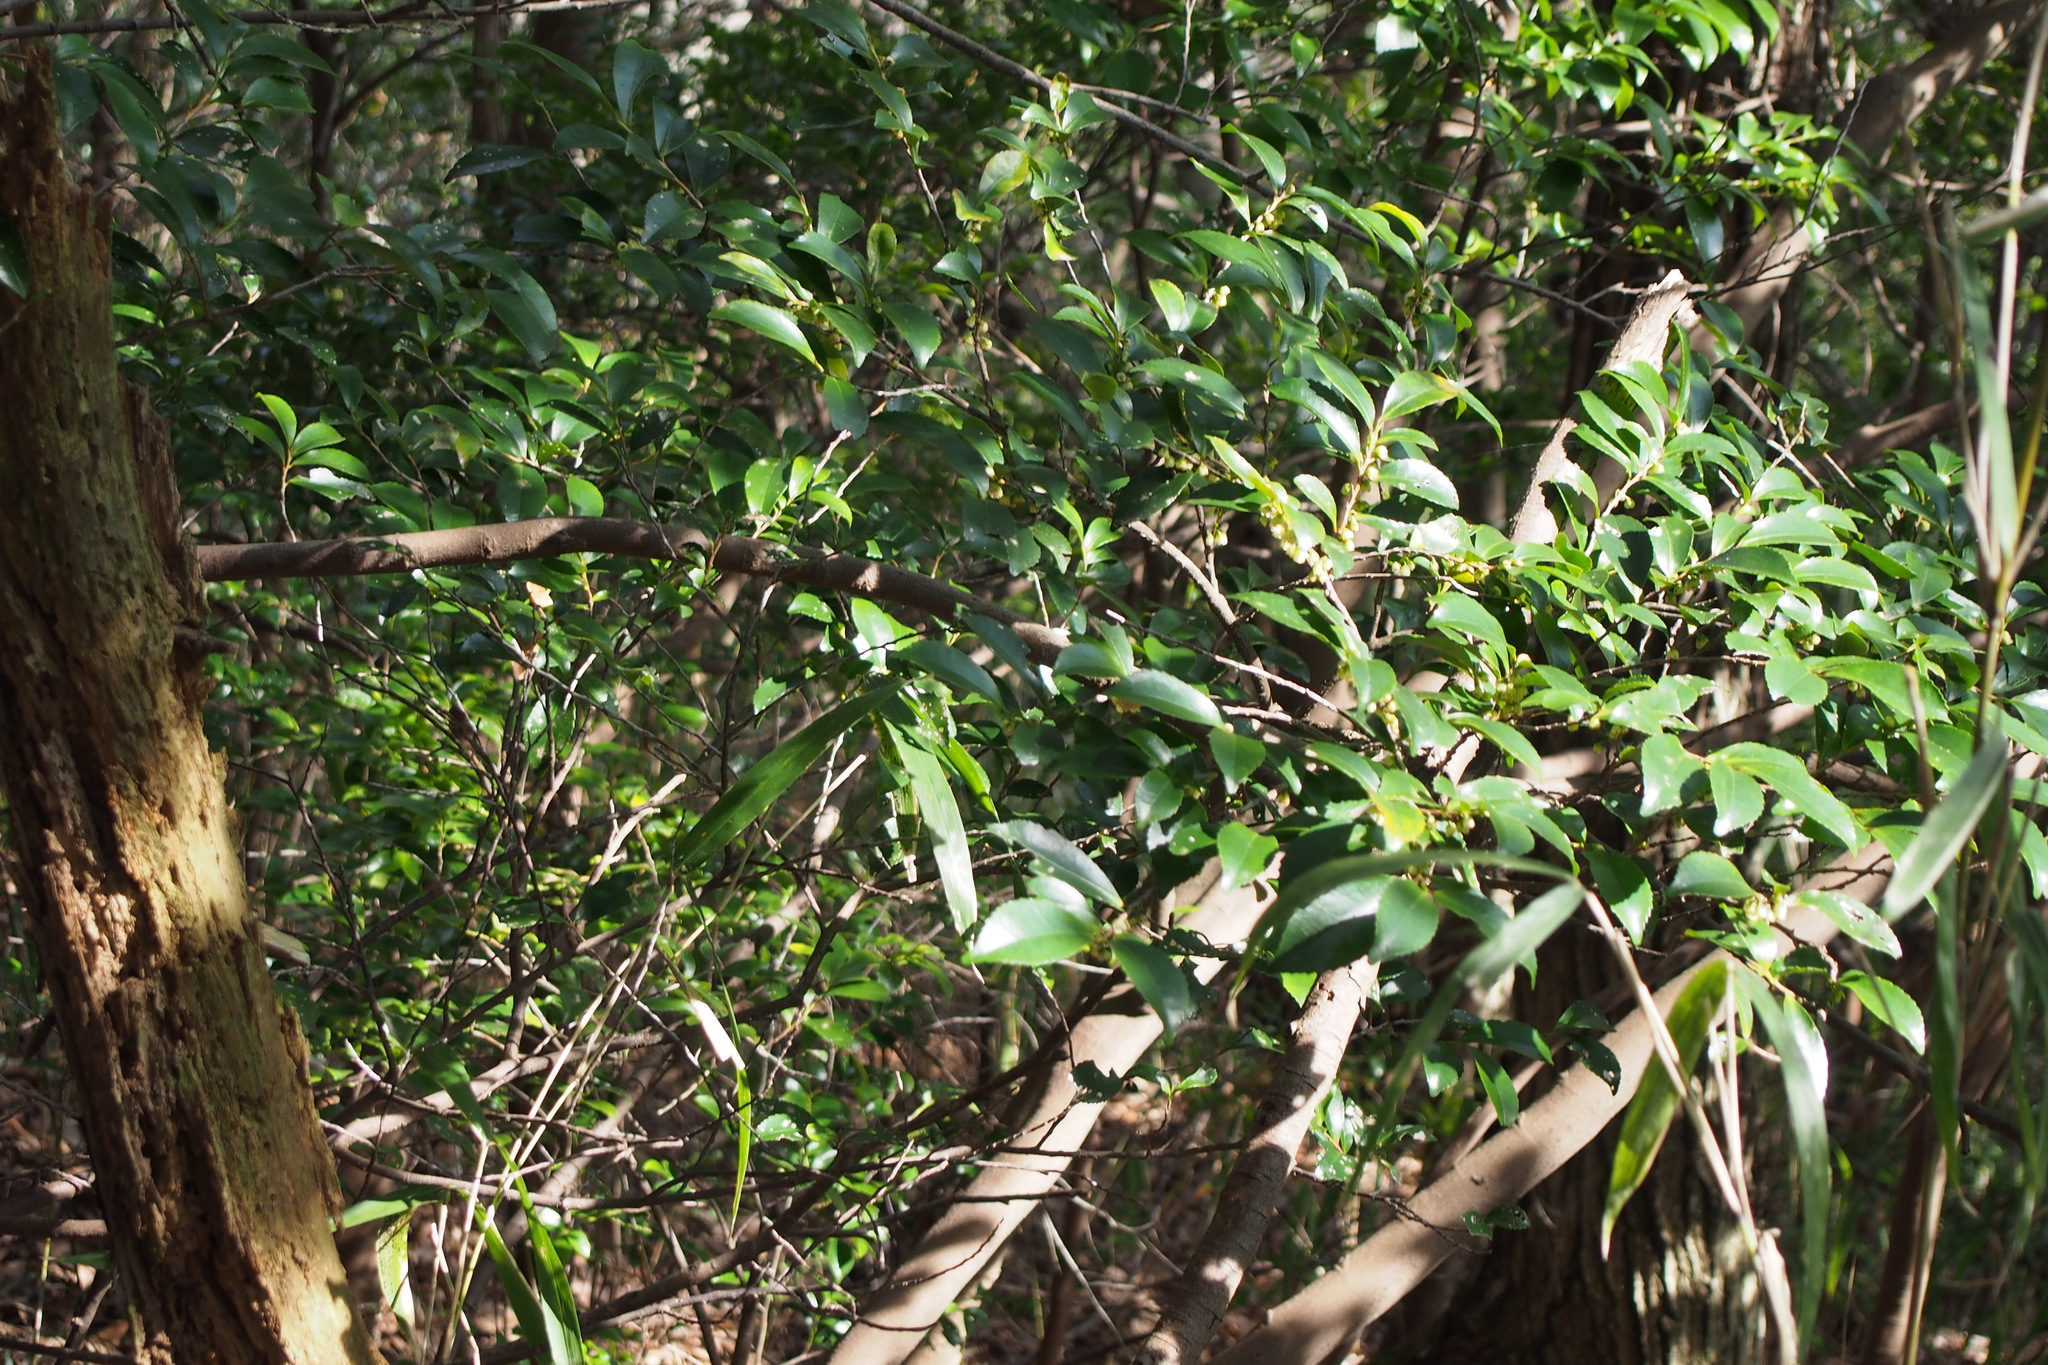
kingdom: Plantae
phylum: Tracheophyta
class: Magnoliopsida
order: Ericales
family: Pentaphylacaceae
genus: Eurya
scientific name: Eurya japonica
